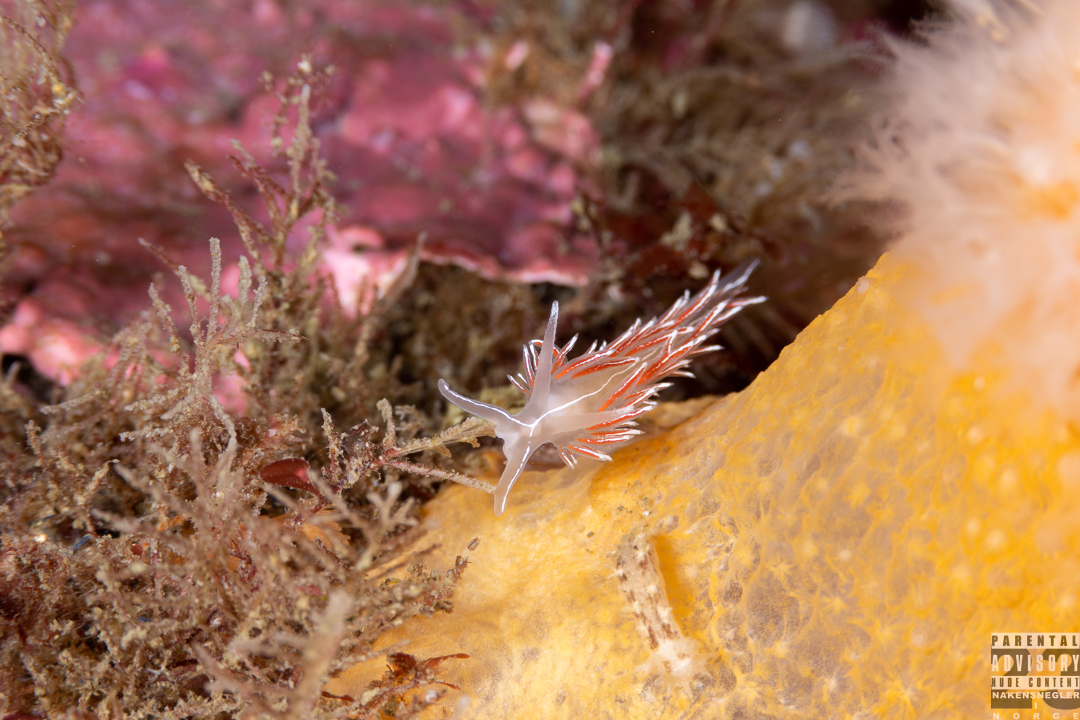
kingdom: Animalia
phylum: Mollusca
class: Gastropoda
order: Nudibranchia
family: Coryphellidae
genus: Coryphella
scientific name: Coryphella lineata
